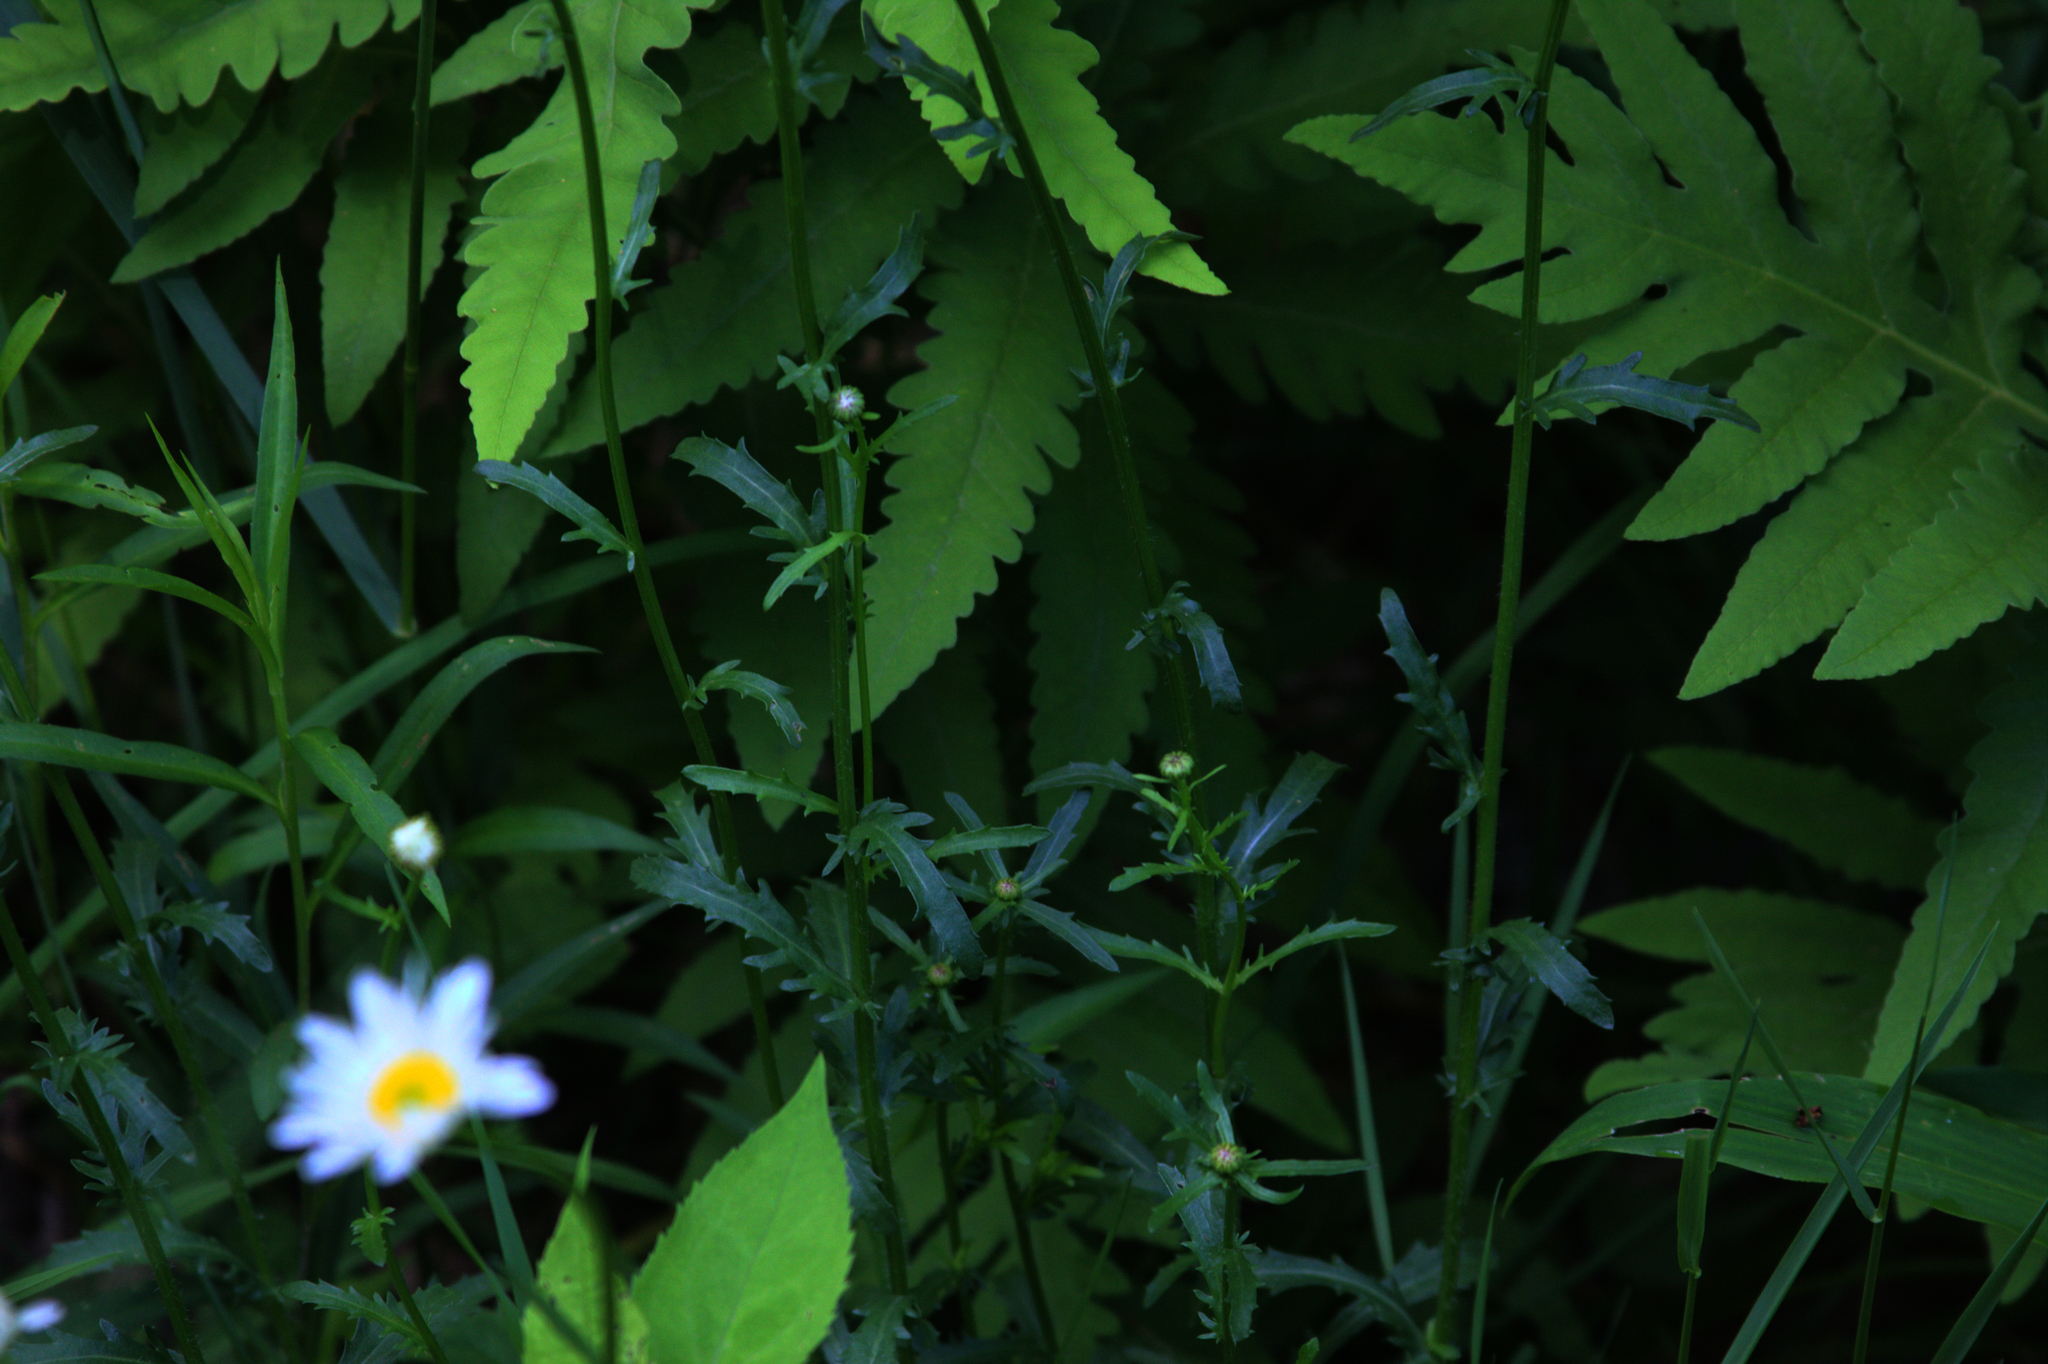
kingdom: Plantae
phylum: Tracheophyta
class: Magnoliopsida
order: Asterales
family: Asteraceae
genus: Leucanthemum
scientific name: Leucanthemum vulgare
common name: Oxeye daisy
